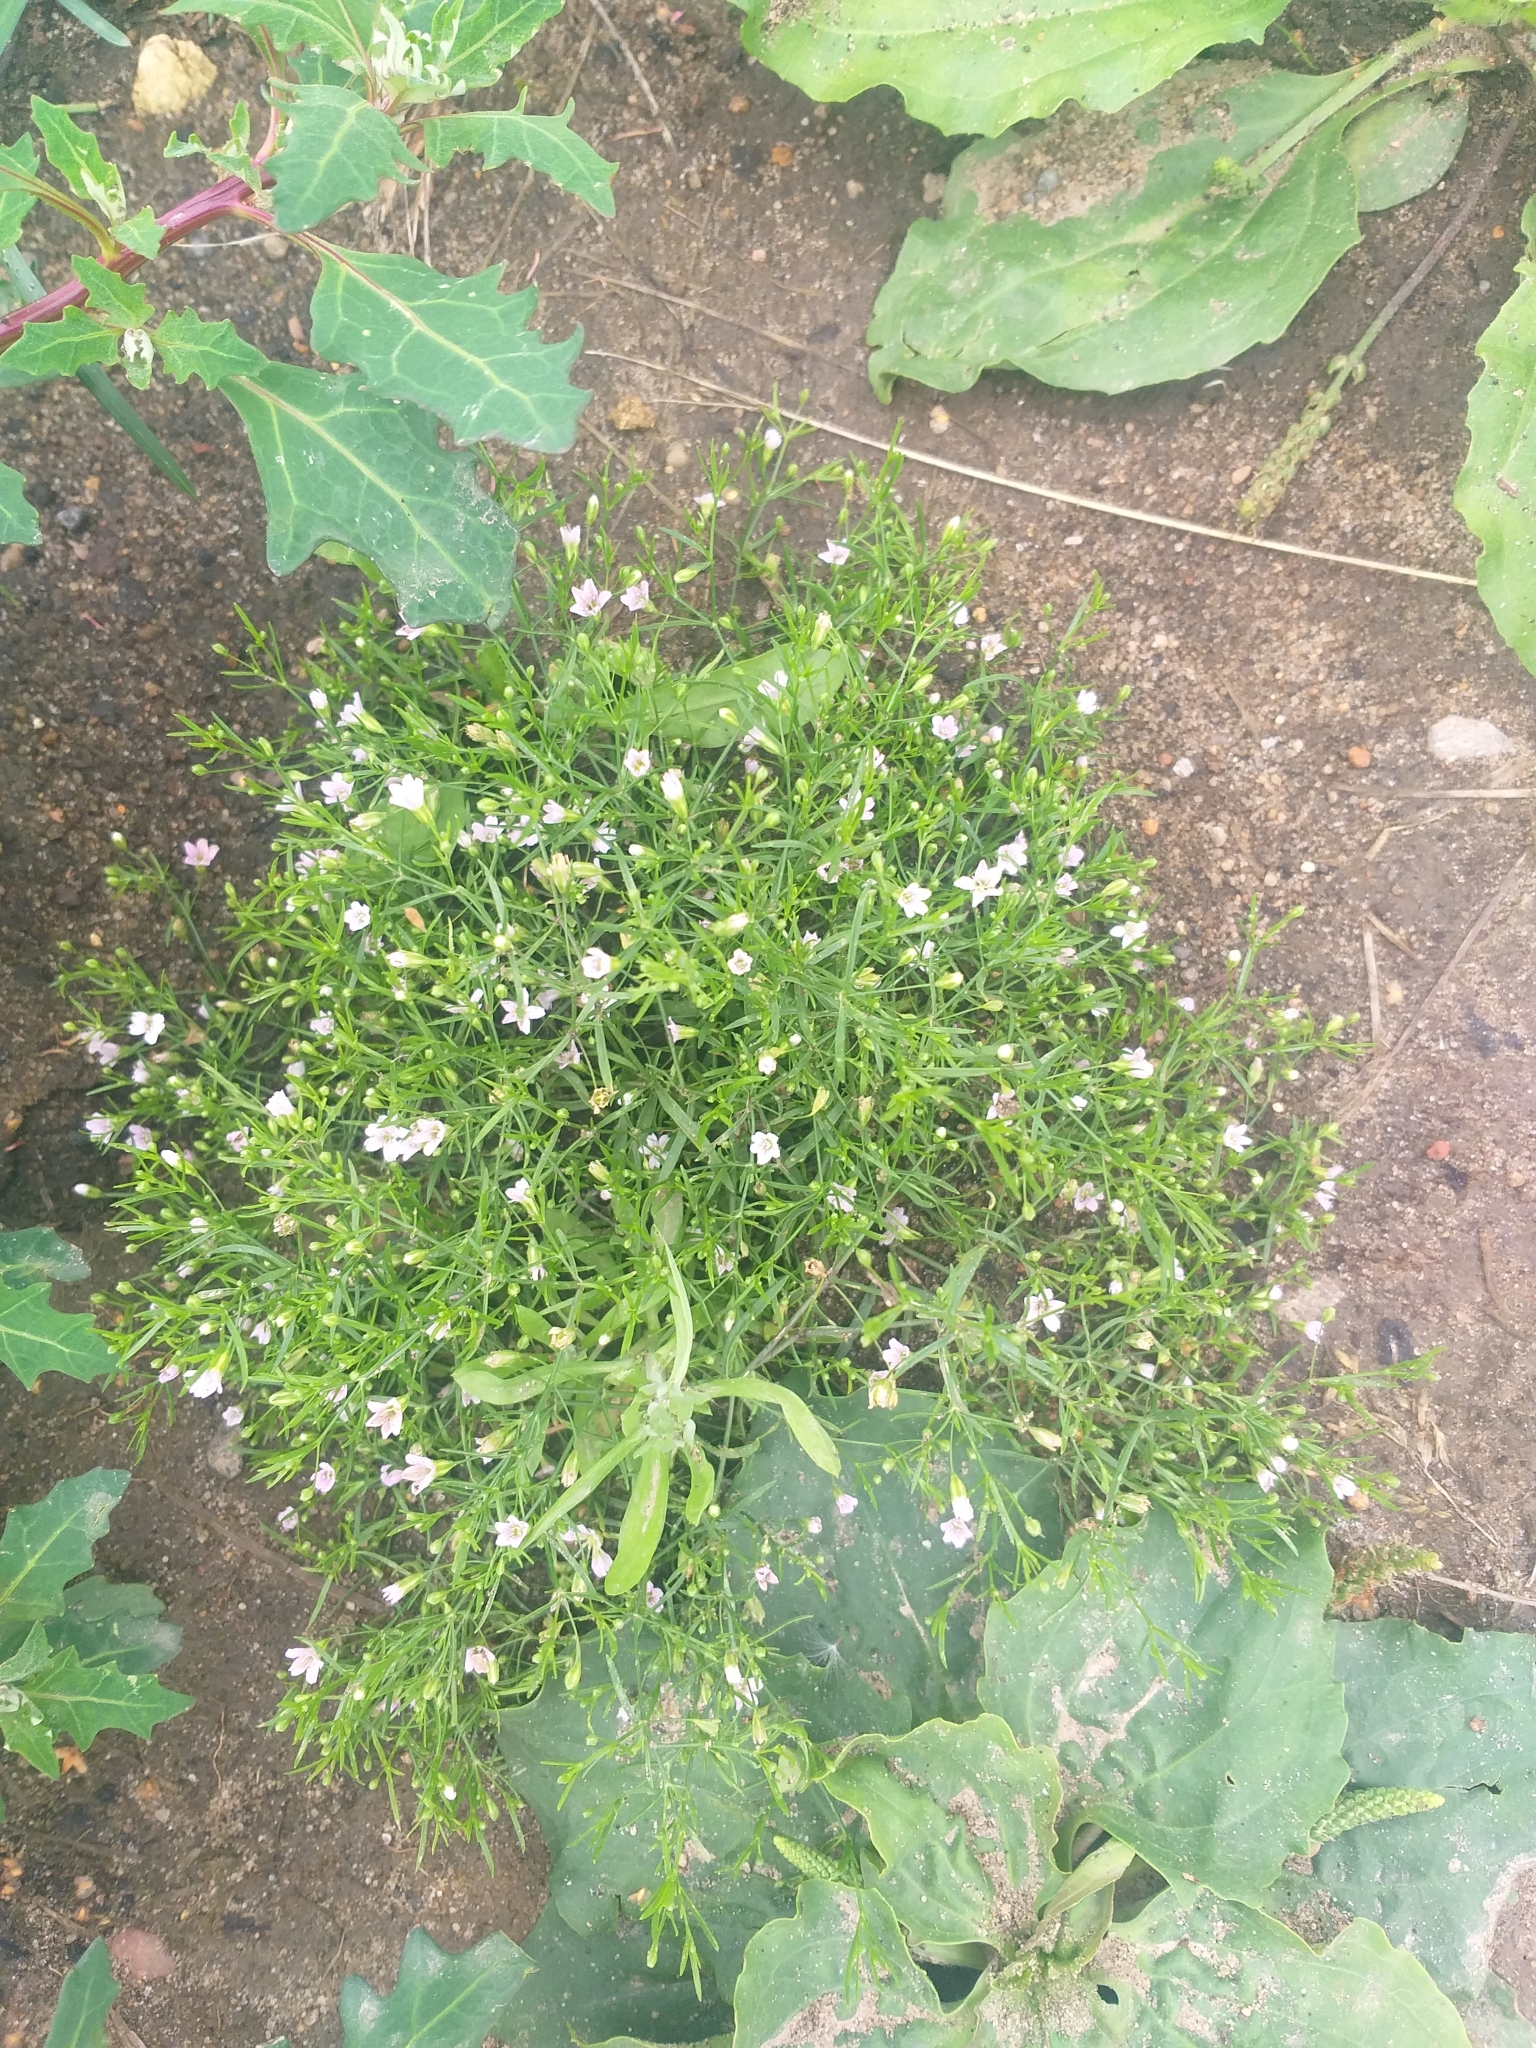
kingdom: Plantae
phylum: Tracheophyta
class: Magnoliopsida
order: Caryophyllales
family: Caryophyllaceae
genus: Psammophiliella
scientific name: Psammophiliella muralis
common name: Cushion baby's-breath
